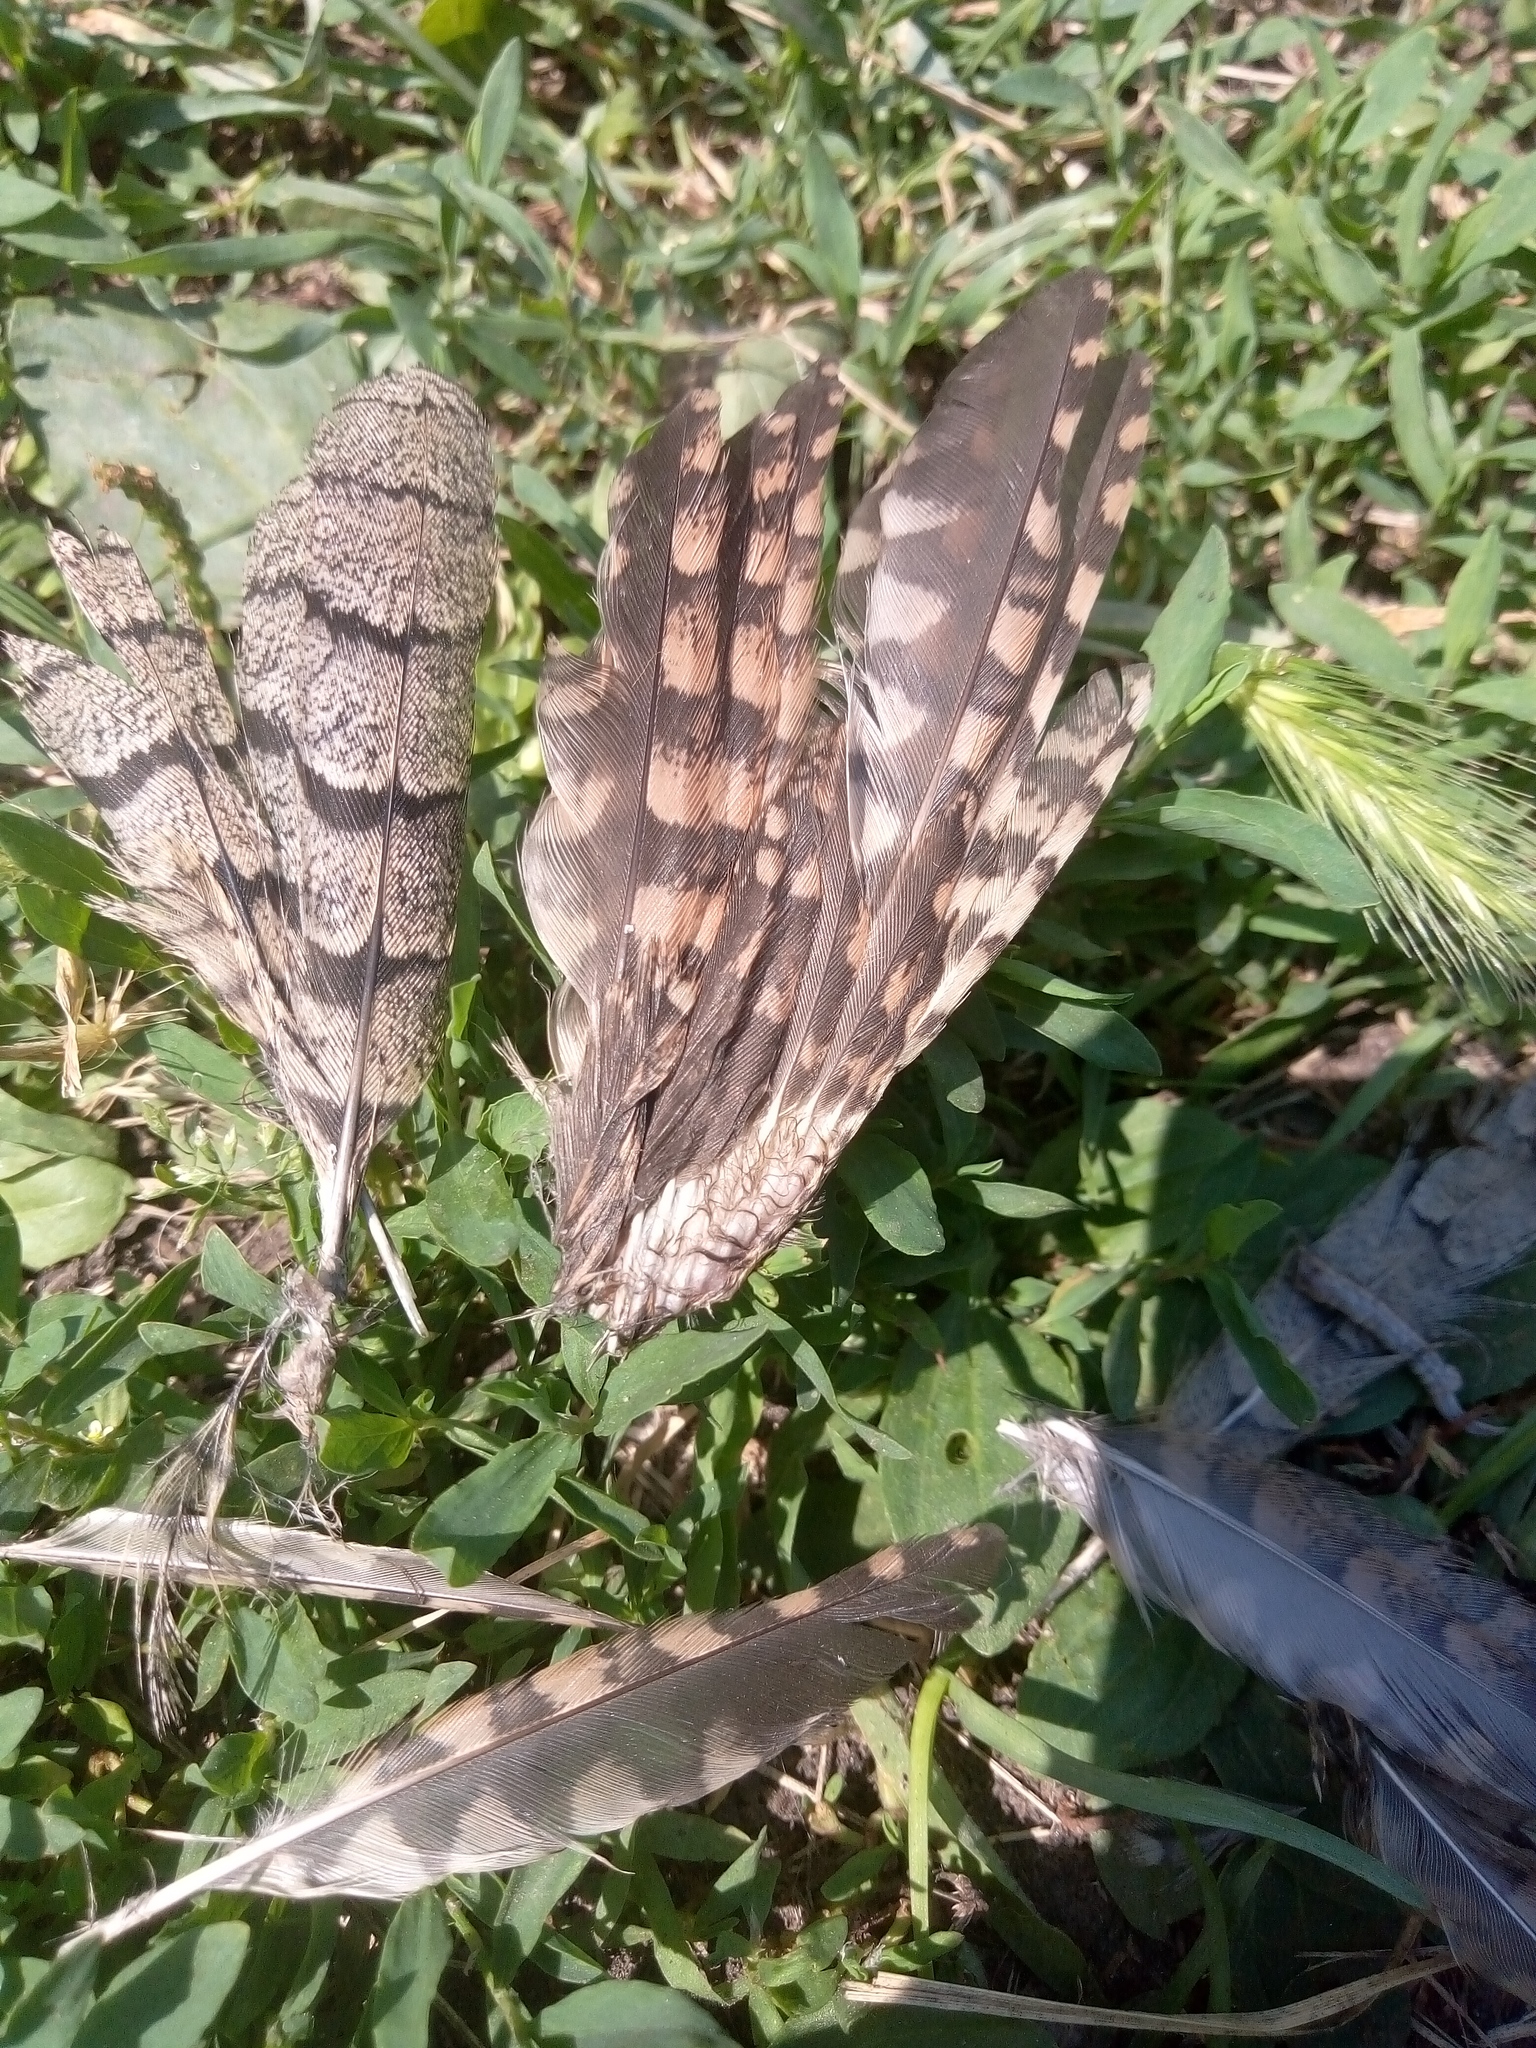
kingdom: Animalia
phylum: Chordata
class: Aves
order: Piciformes
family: Picidae
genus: Jynx
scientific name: Jynx torquilla
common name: Eurasian wryneck
